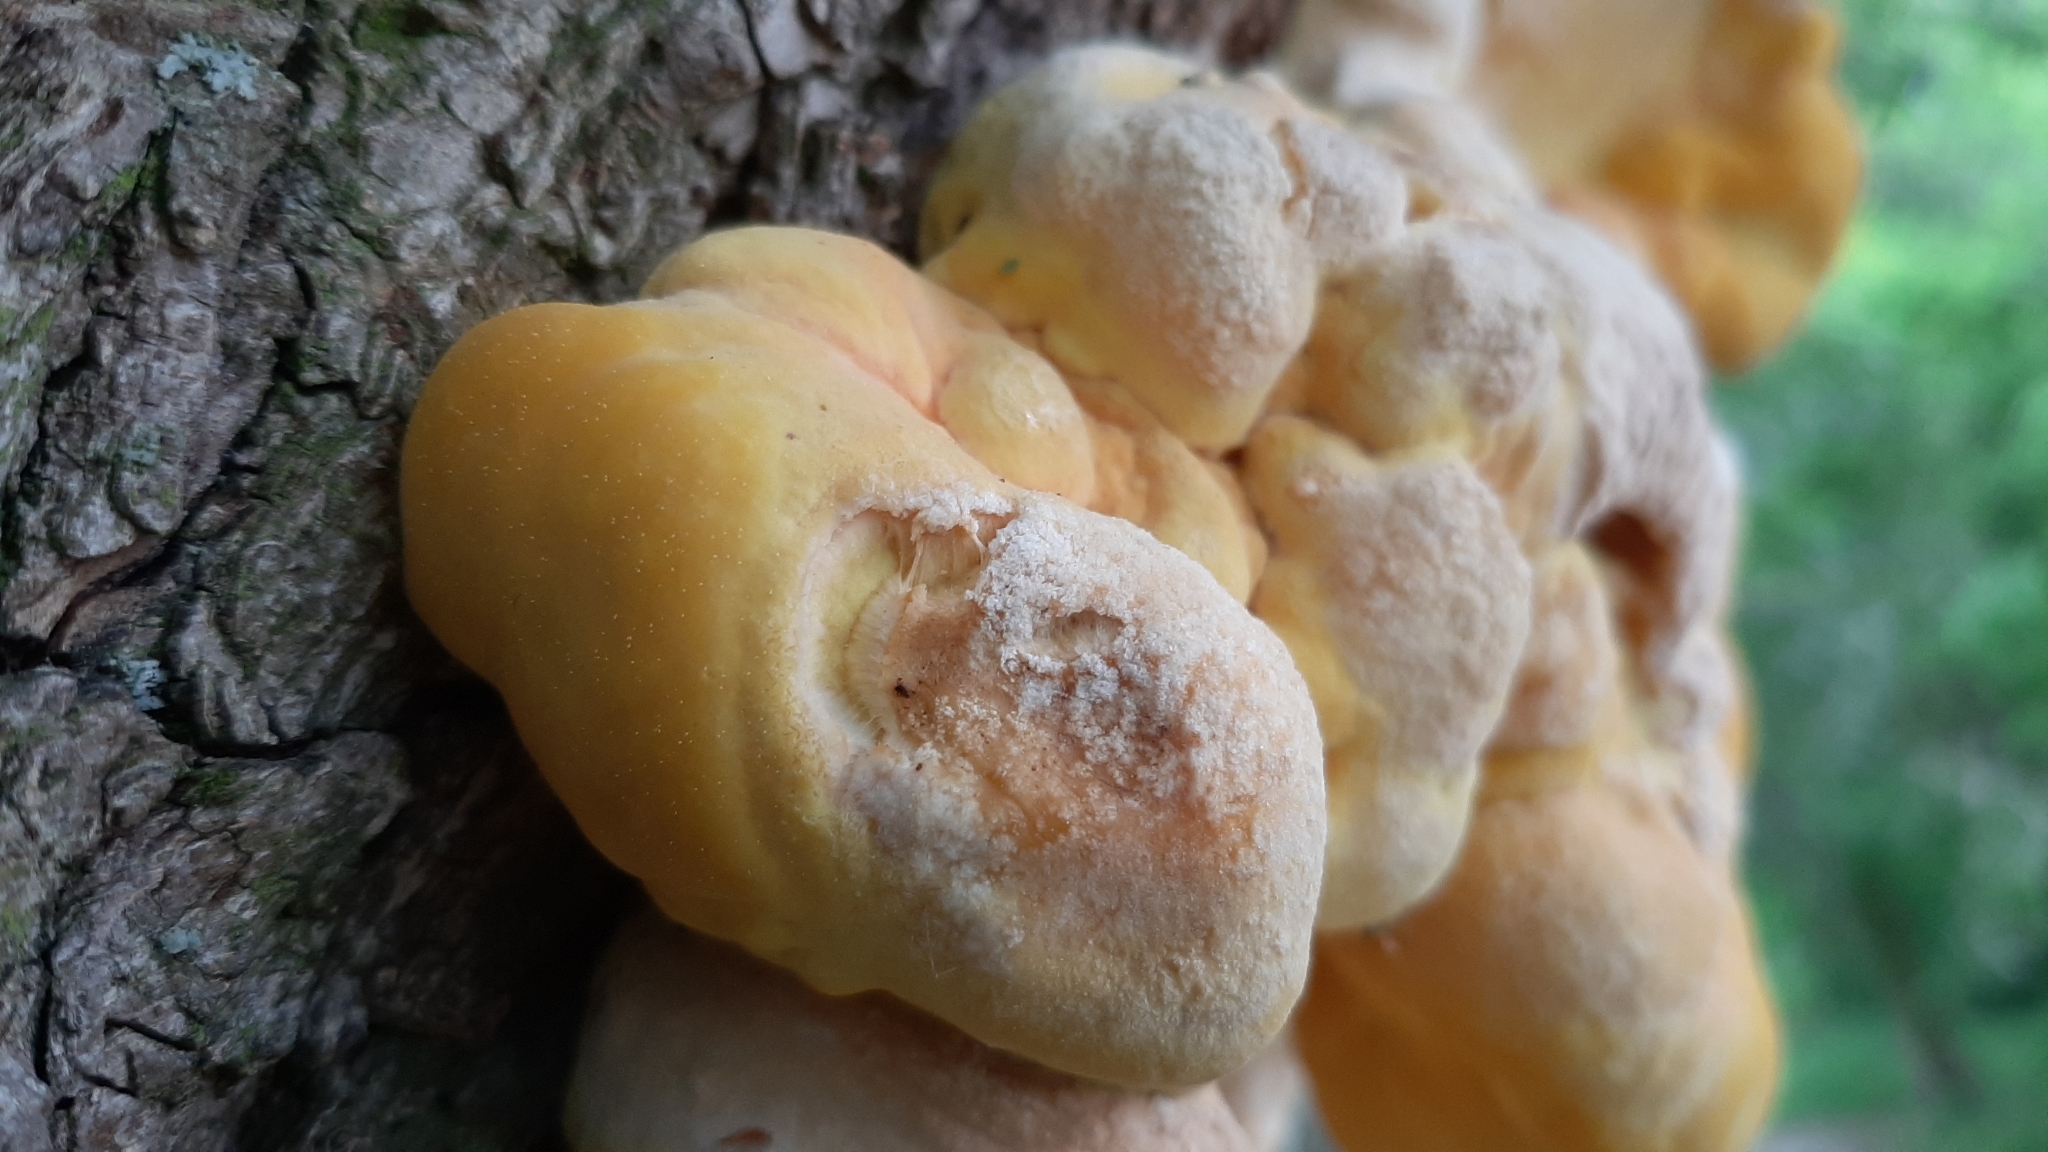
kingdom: Fungi
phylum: Basidiomycota
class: Agaricomycetes
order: Polyporales
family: Laetiporaceae
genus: Laetiporus
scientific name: Laetiporus sulphureus
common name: Chicken of the woods
